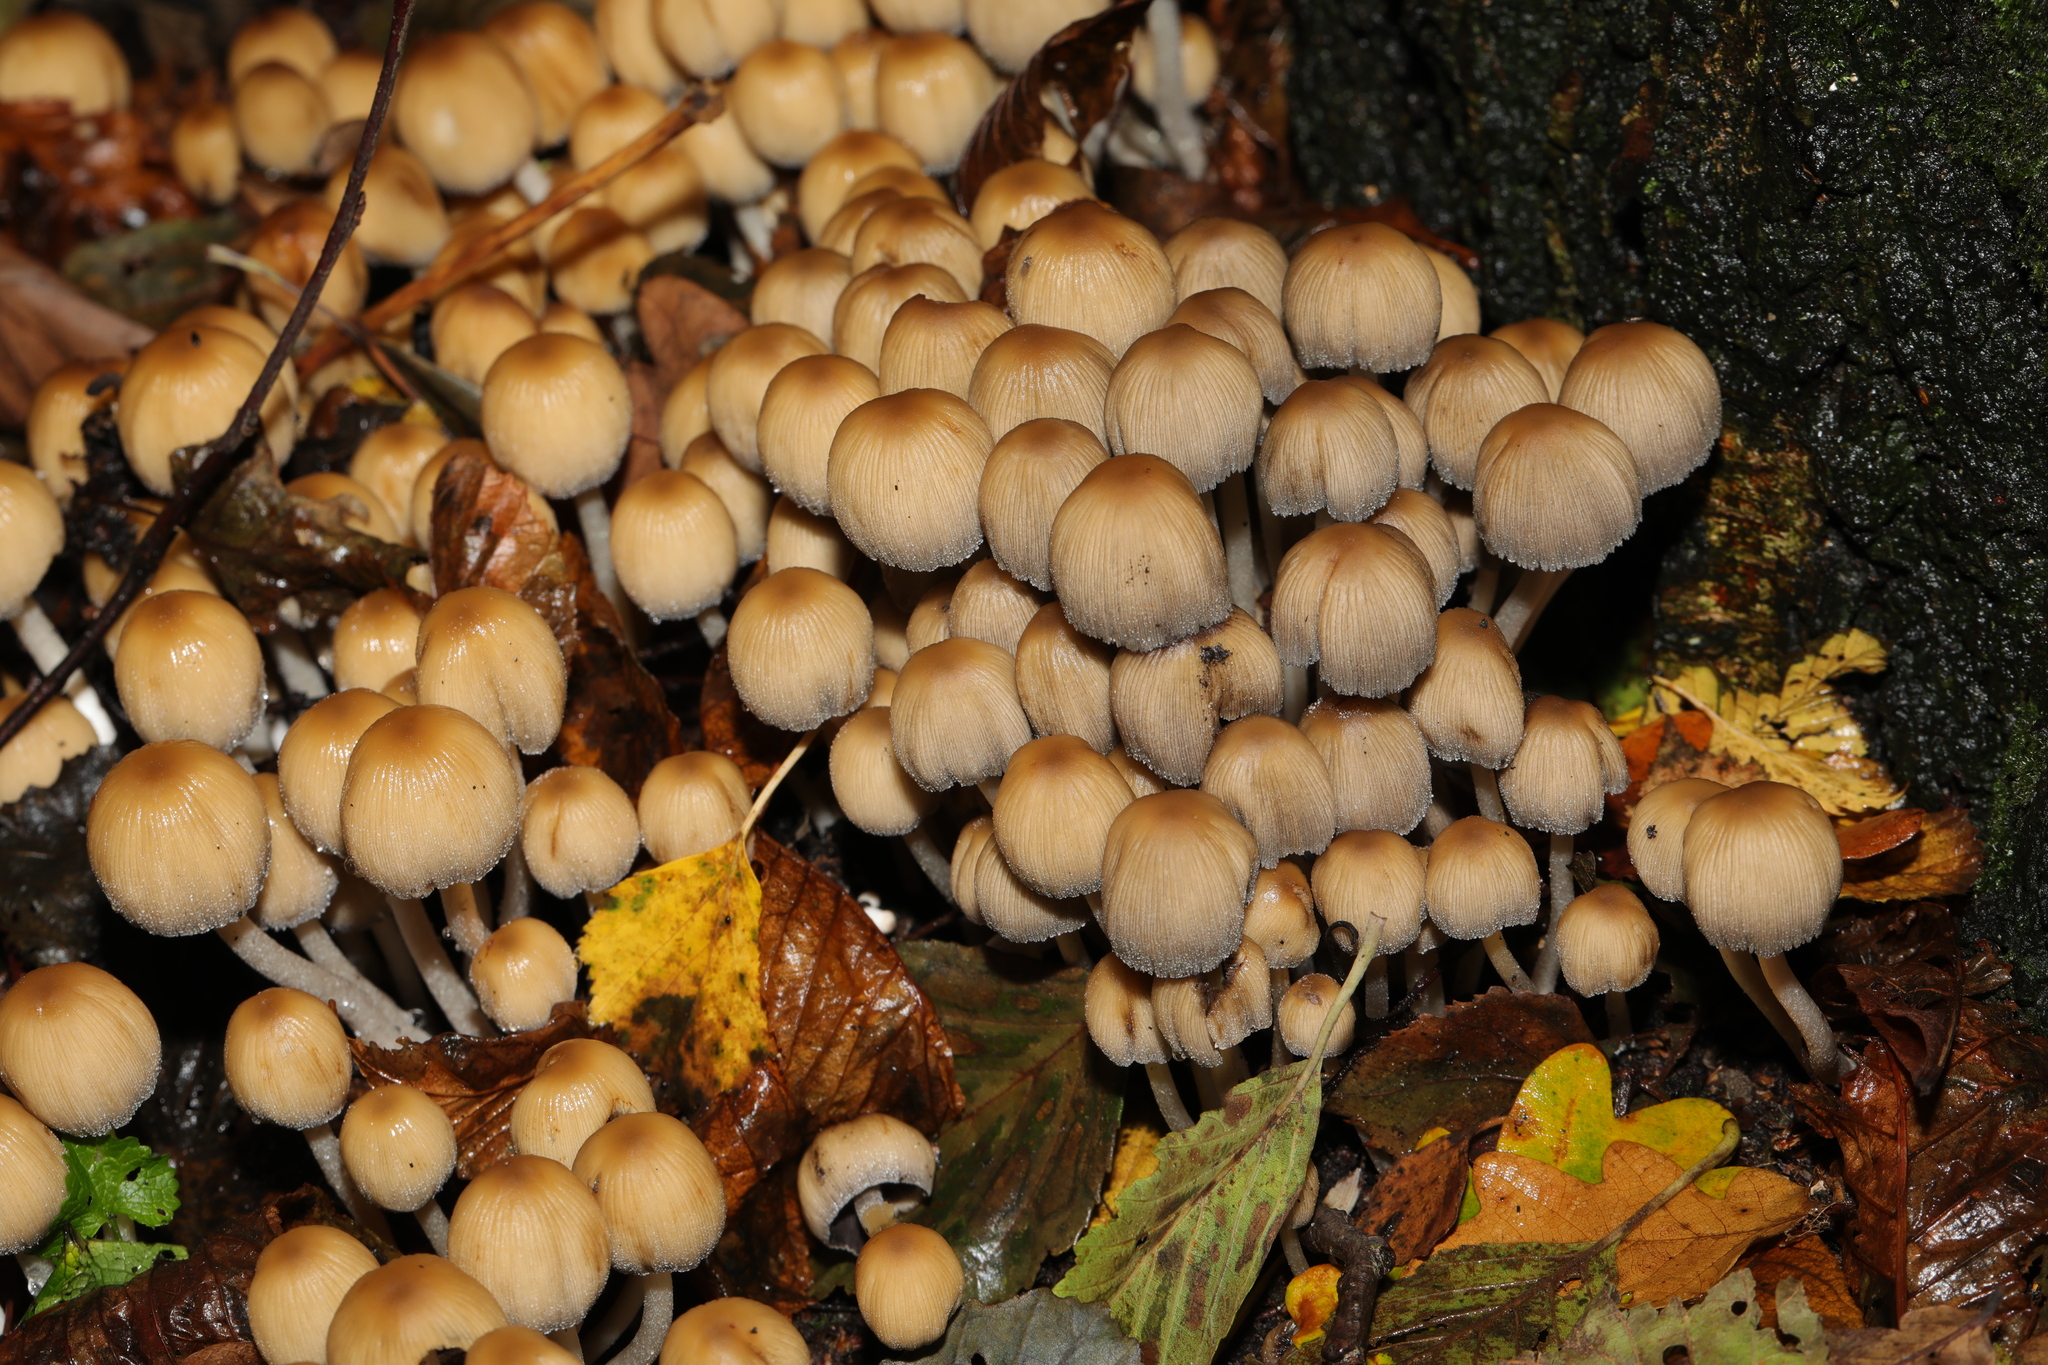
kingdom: Fungi
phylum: Basidiomycota
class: Agaricomycetes
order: Agaricales
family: Psathyrellaceae
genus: Coprinellus
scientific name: Coprinellus micaceus
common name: Glistening ink-cap
